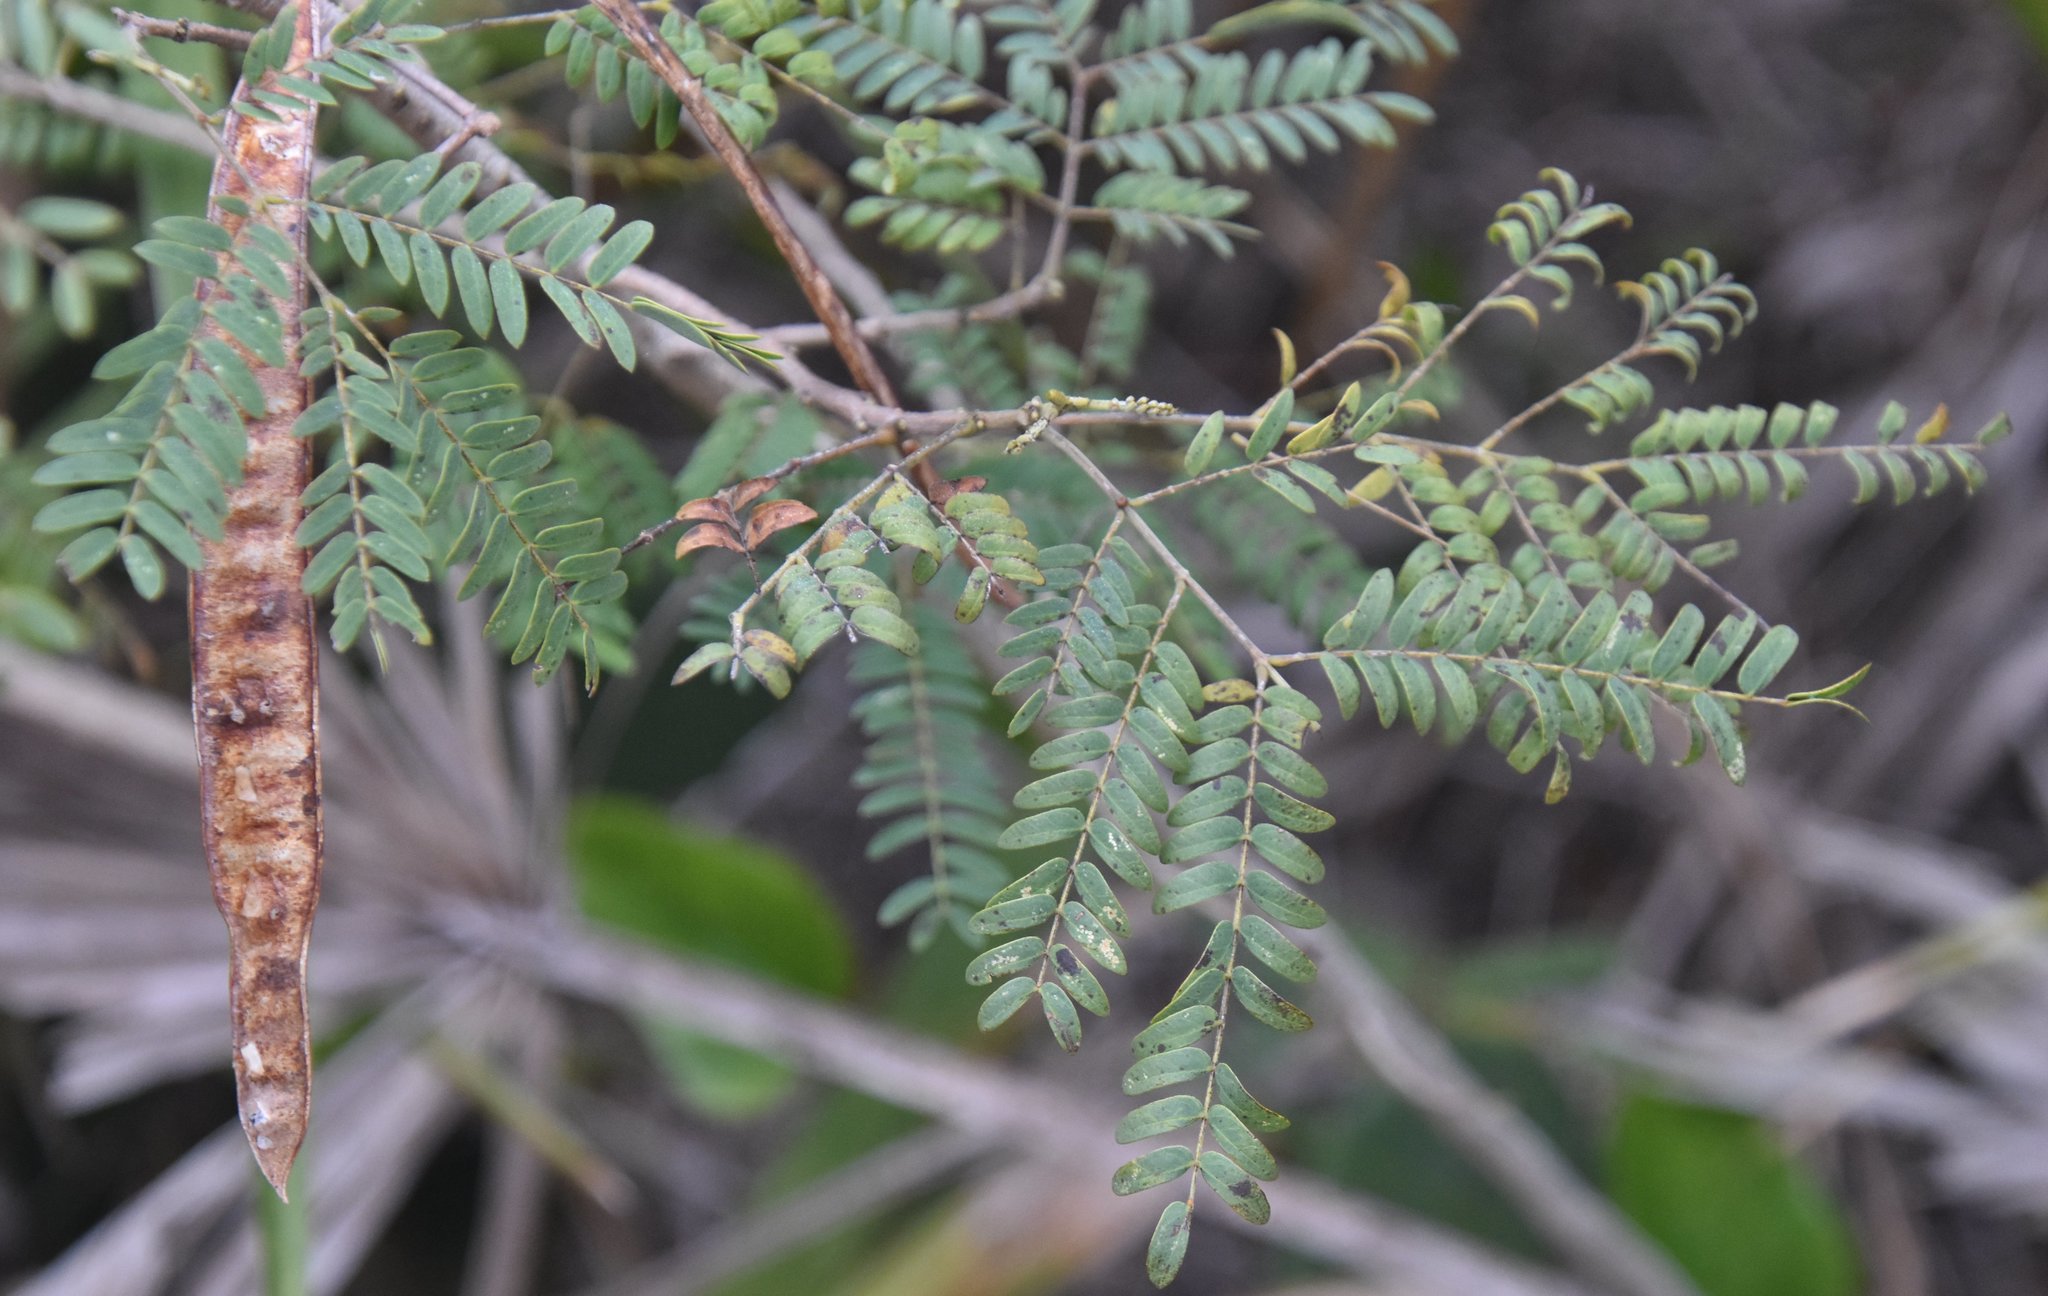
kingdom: Plantae
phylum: Tracheophyta
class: Magnoliopsida
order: Fabales
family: Fabaceae
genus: Leucaena
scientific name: Leucaena leucocephala
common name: White leadtree
